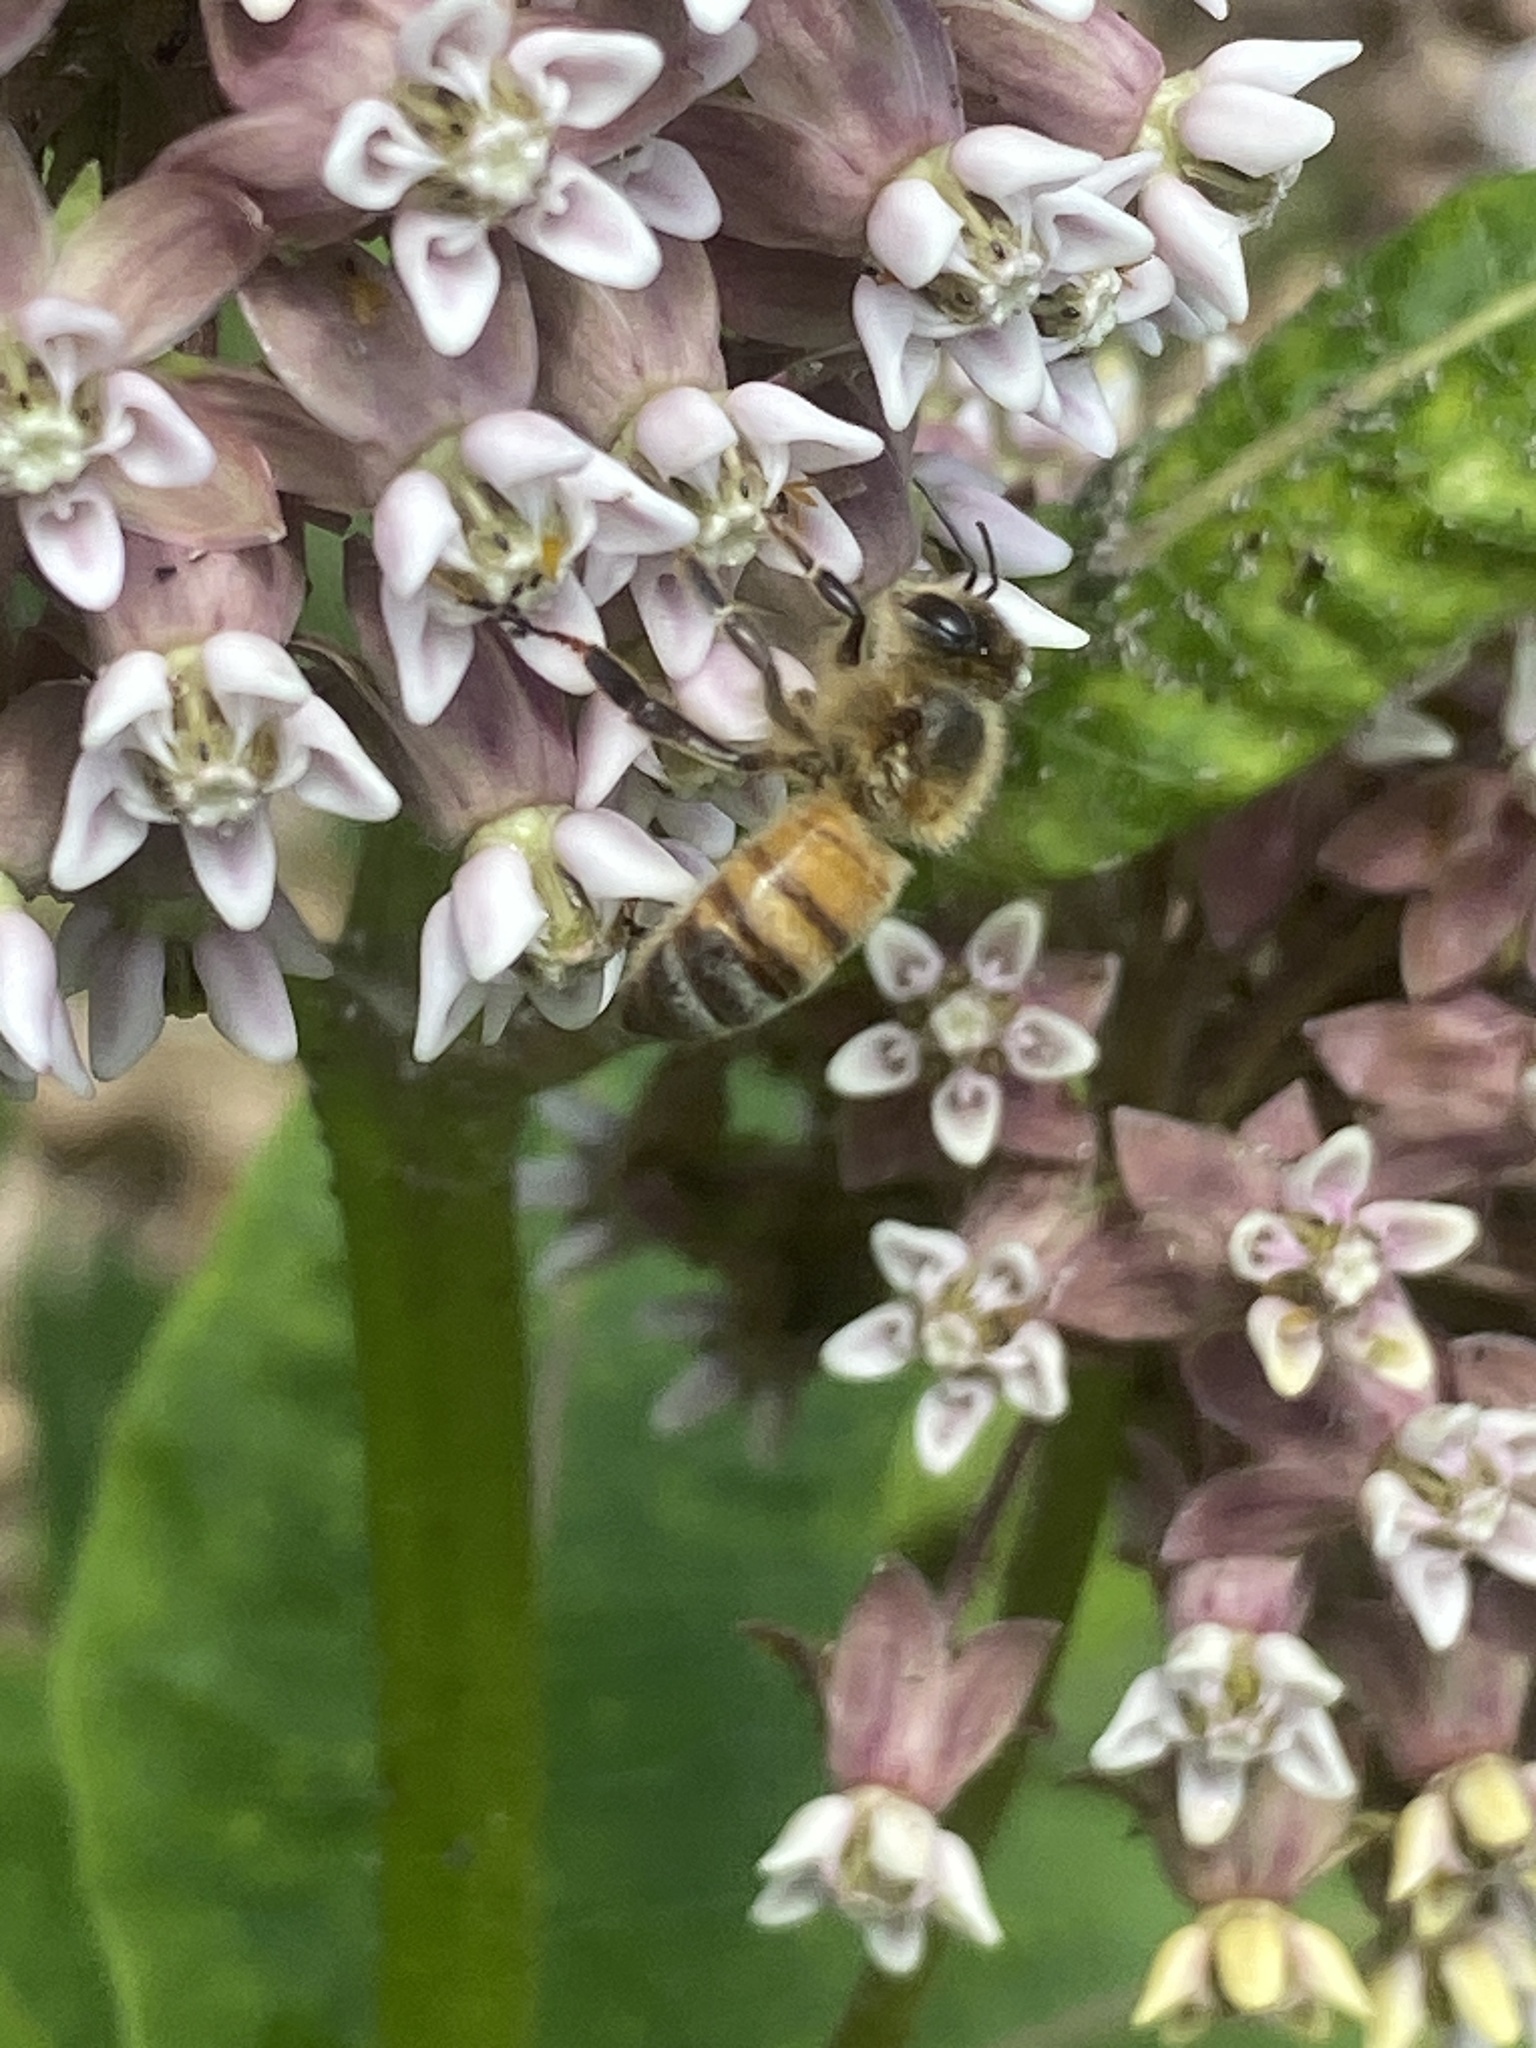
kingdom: Animalia
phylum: Arthropoda
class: Insecta
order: Hymenoptera
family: Apidae
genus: Apis
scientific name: Apis mellifera
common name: Honey bee
